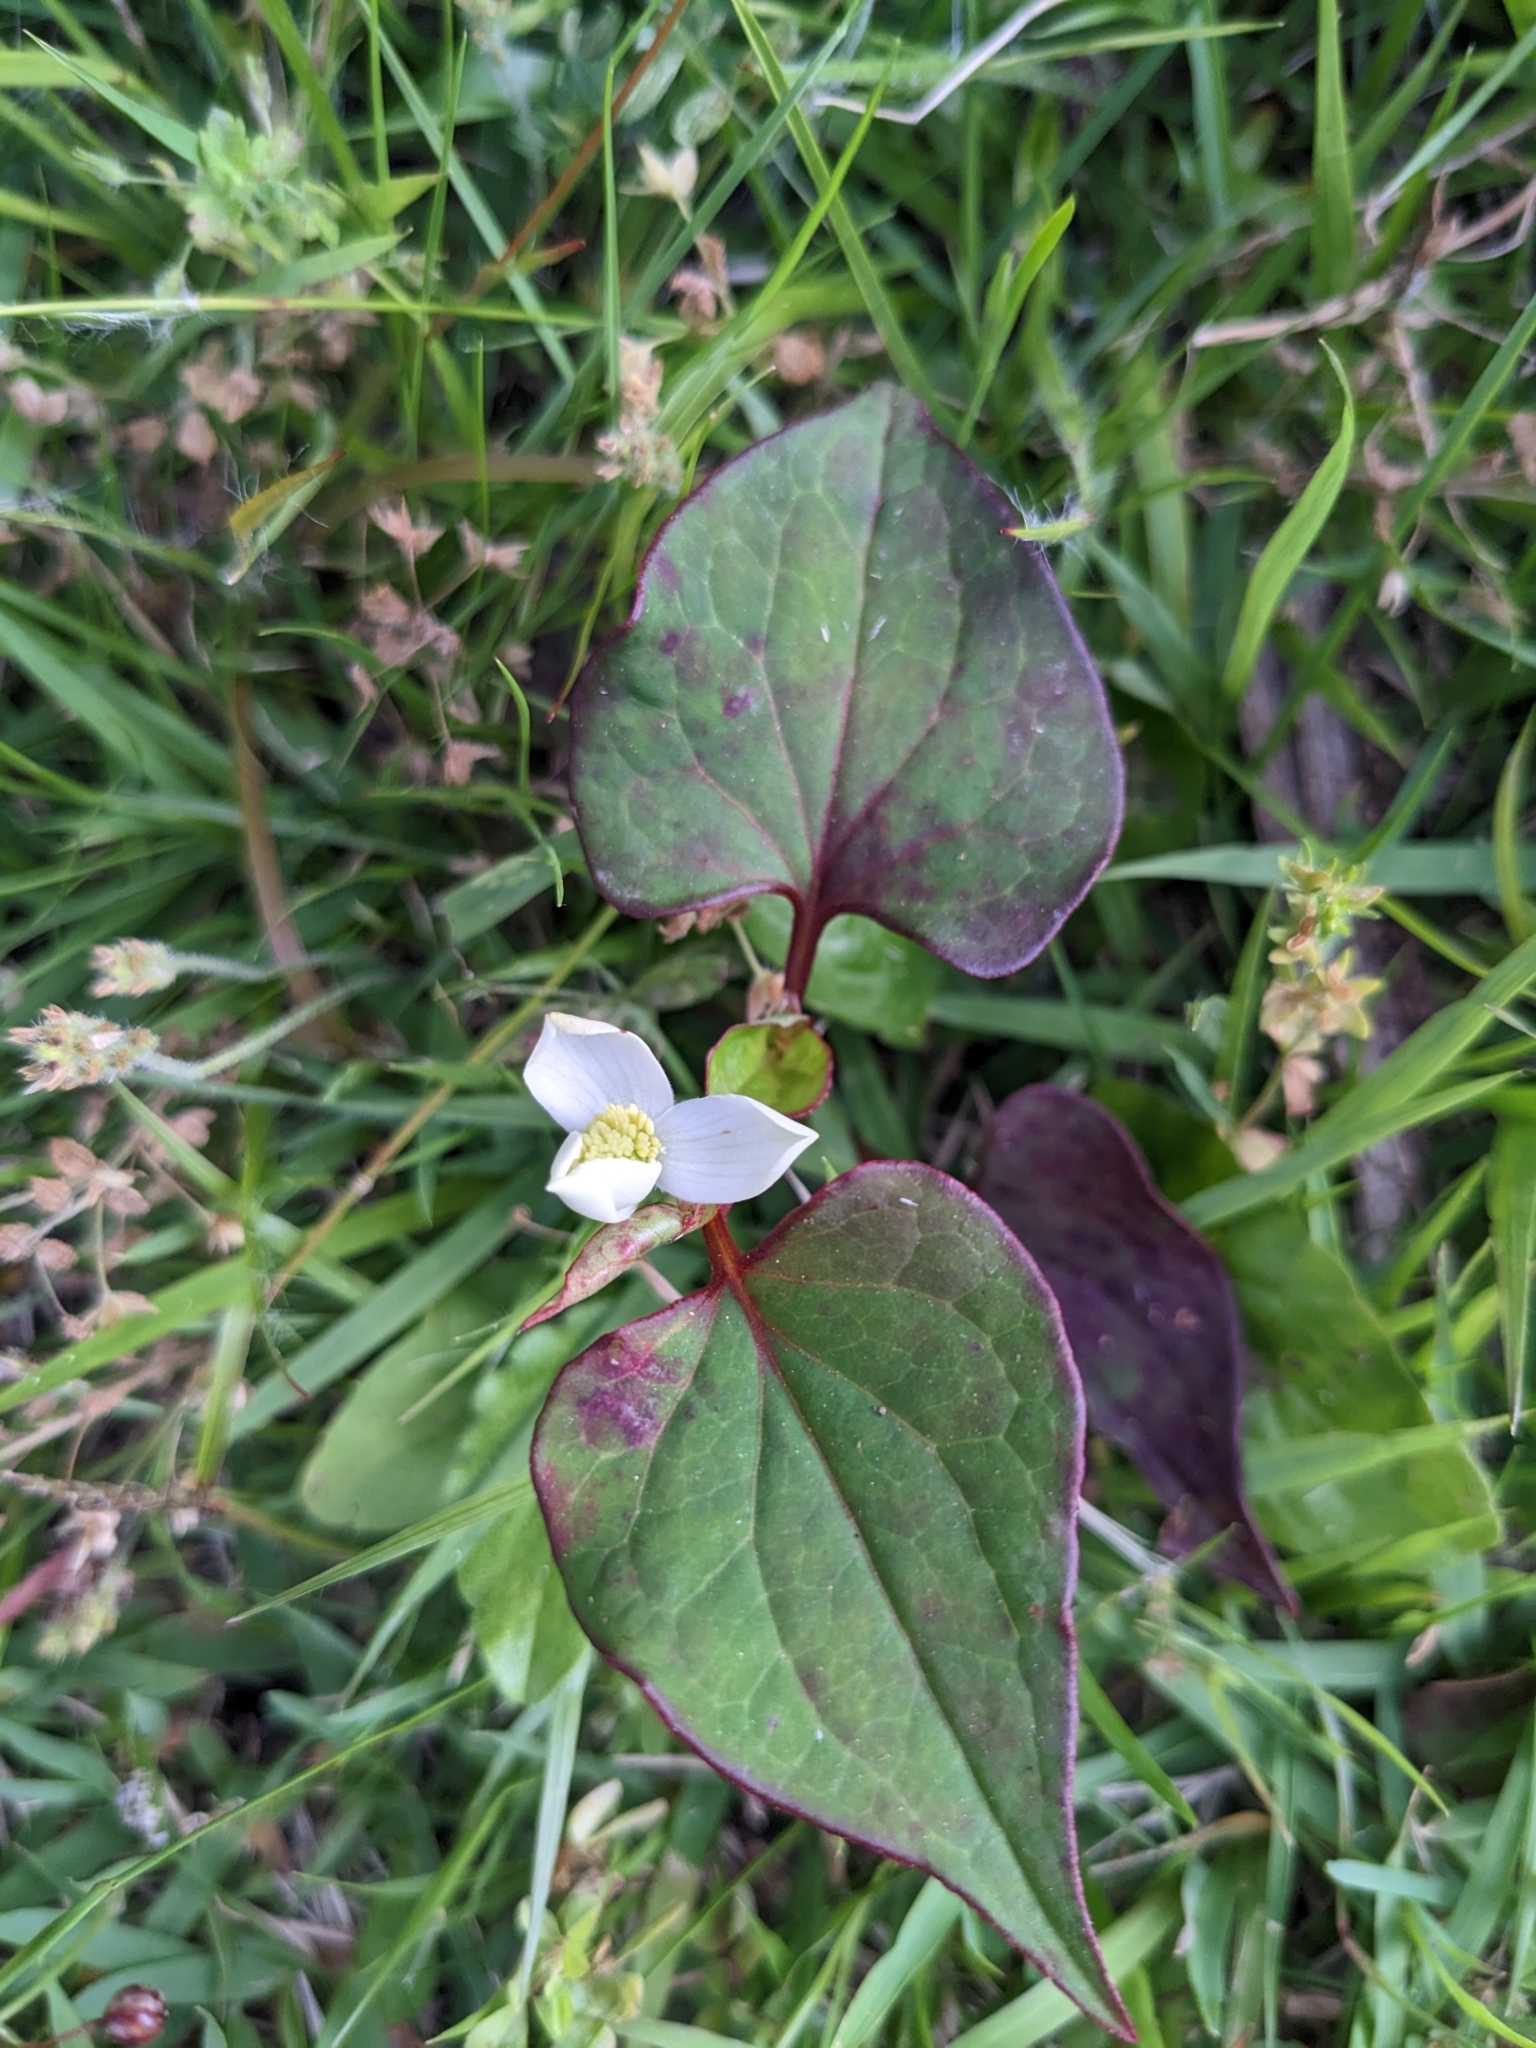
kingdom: Plantae
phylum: Tracheophyta
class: Magnoliopsida
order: Piperales
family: Saururaceae
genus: Houttuynia
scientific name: Houttuynia cordata
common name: Chameleon
